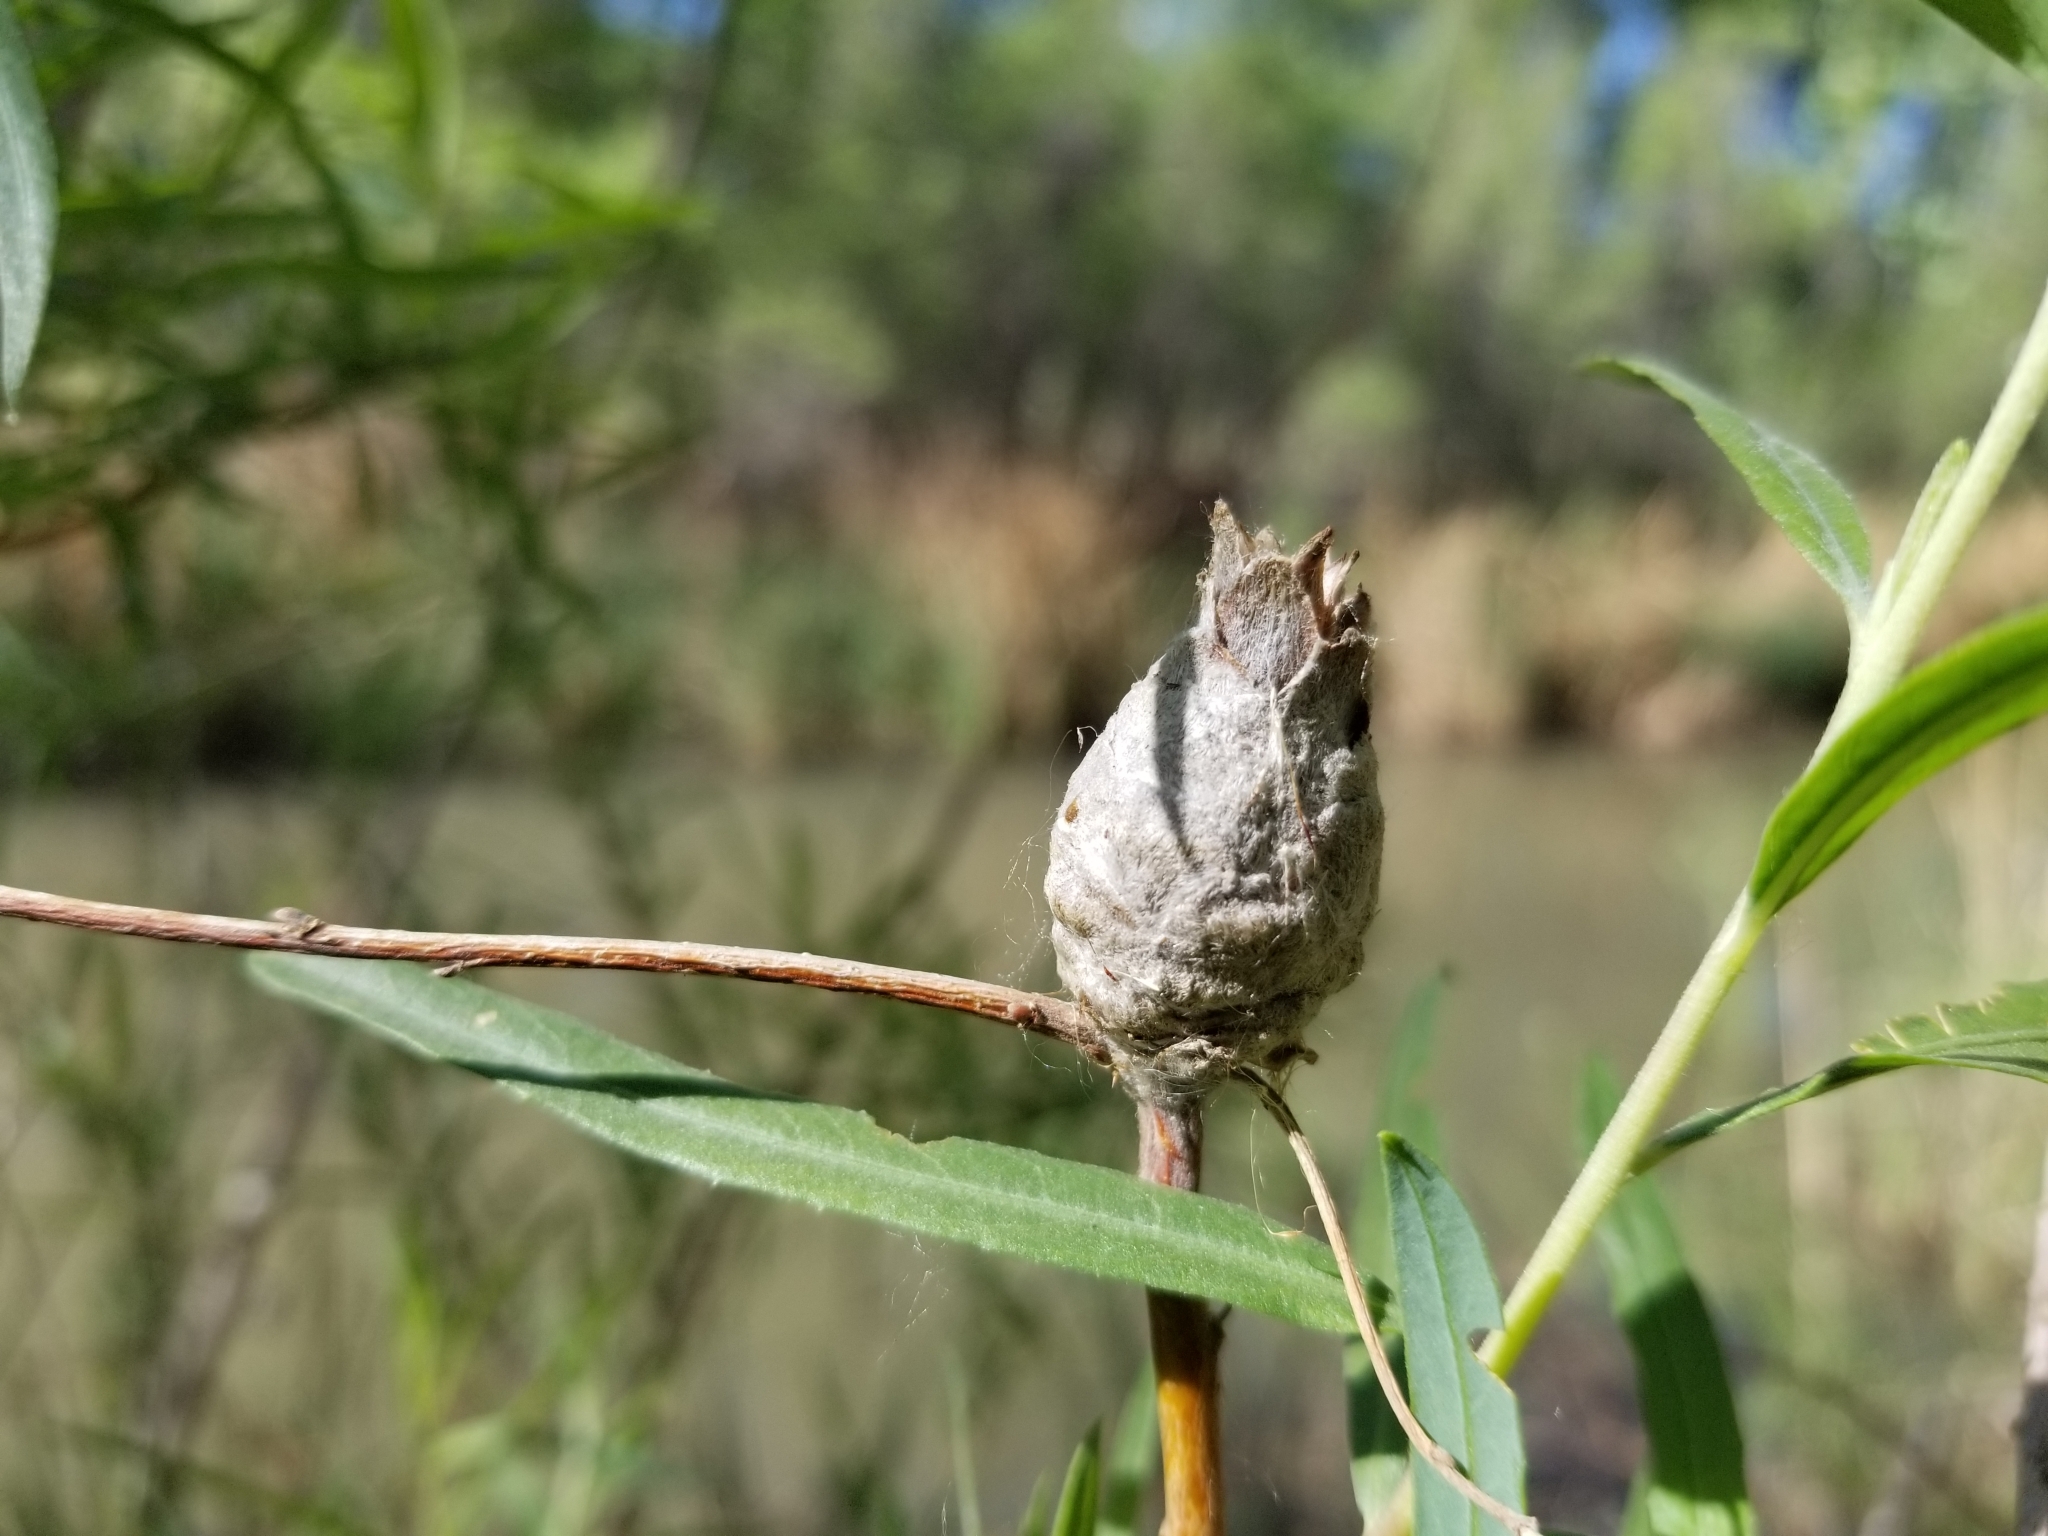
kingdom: Animalia
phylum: Arthropoda
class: Insecta
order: Diptera
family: Cecidomyiidae
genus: Rabdophaga
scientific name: Rabdophaga strobiloides
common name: Willow pinecone gall midge
